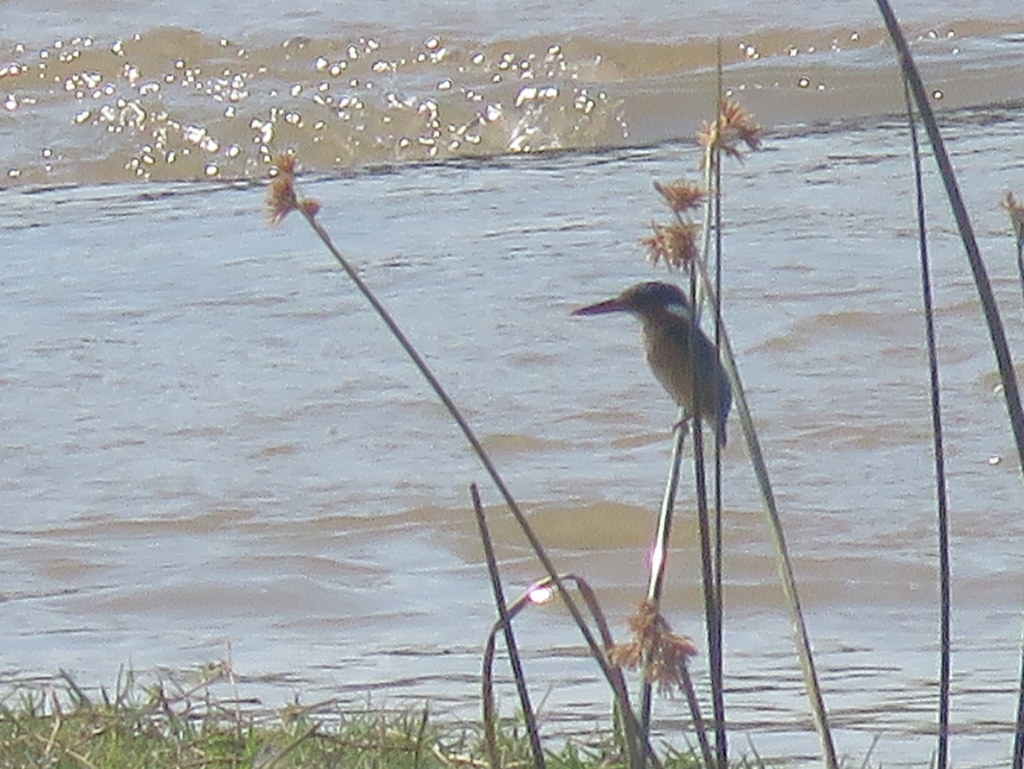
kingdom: Animalia
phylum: Chordata
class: Aves
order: Coraciiformes
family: Alcedinidae
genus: Corythornis
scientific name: Corythornis cristatus
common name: Malachite kingfisher
